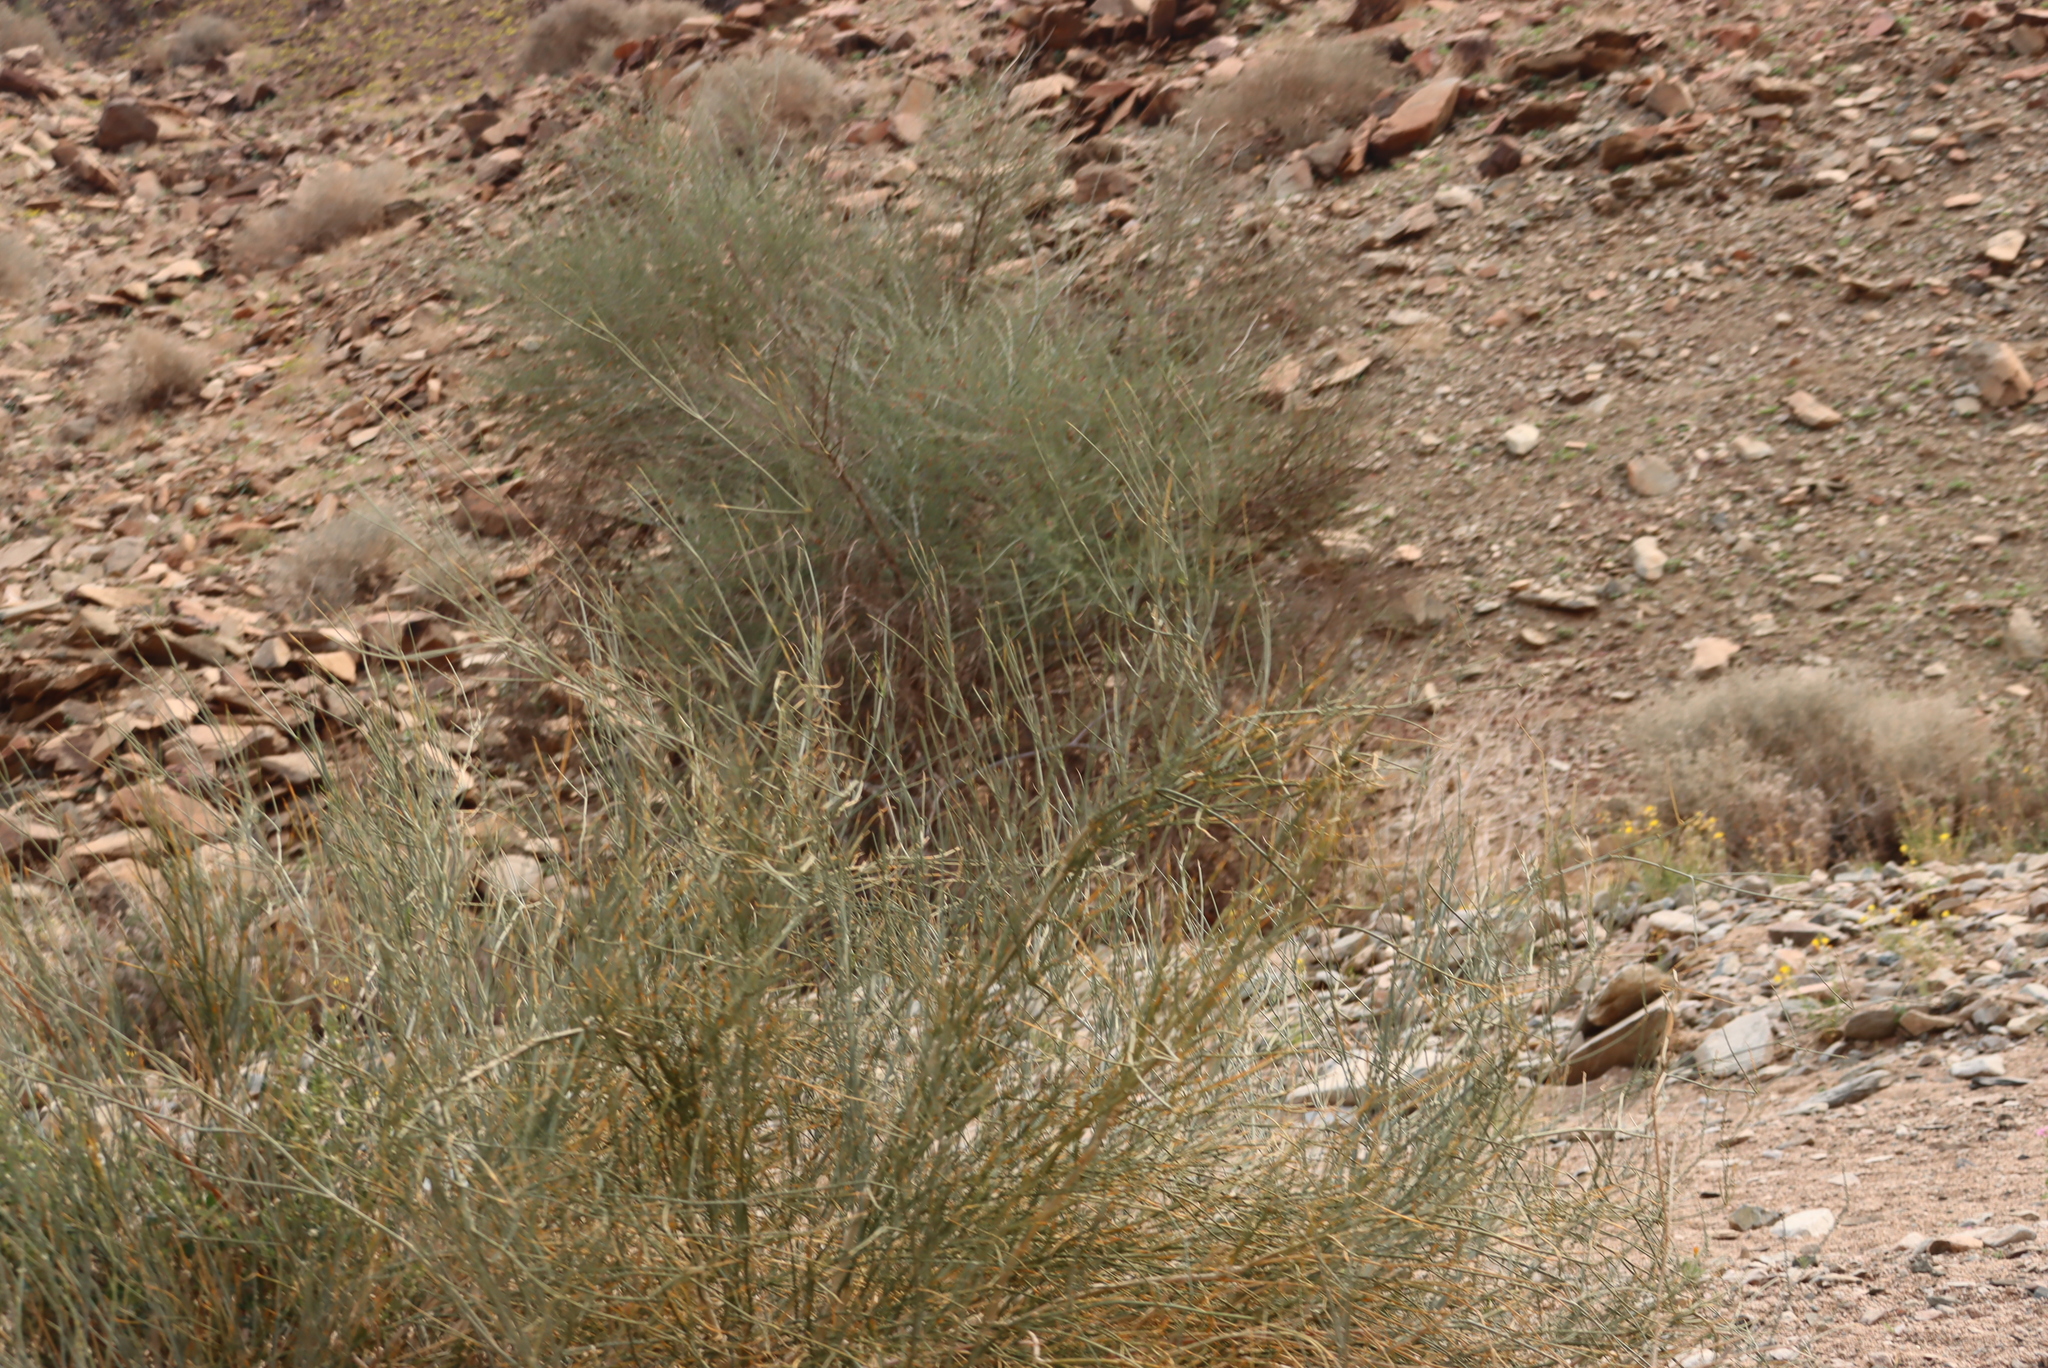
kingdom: Plantae
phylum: Tracheophyta
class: Magnoliopsida
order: Zygophyllales
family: Zygophyllaceae
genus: Sisyndite
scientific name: Sisyndite spartea
